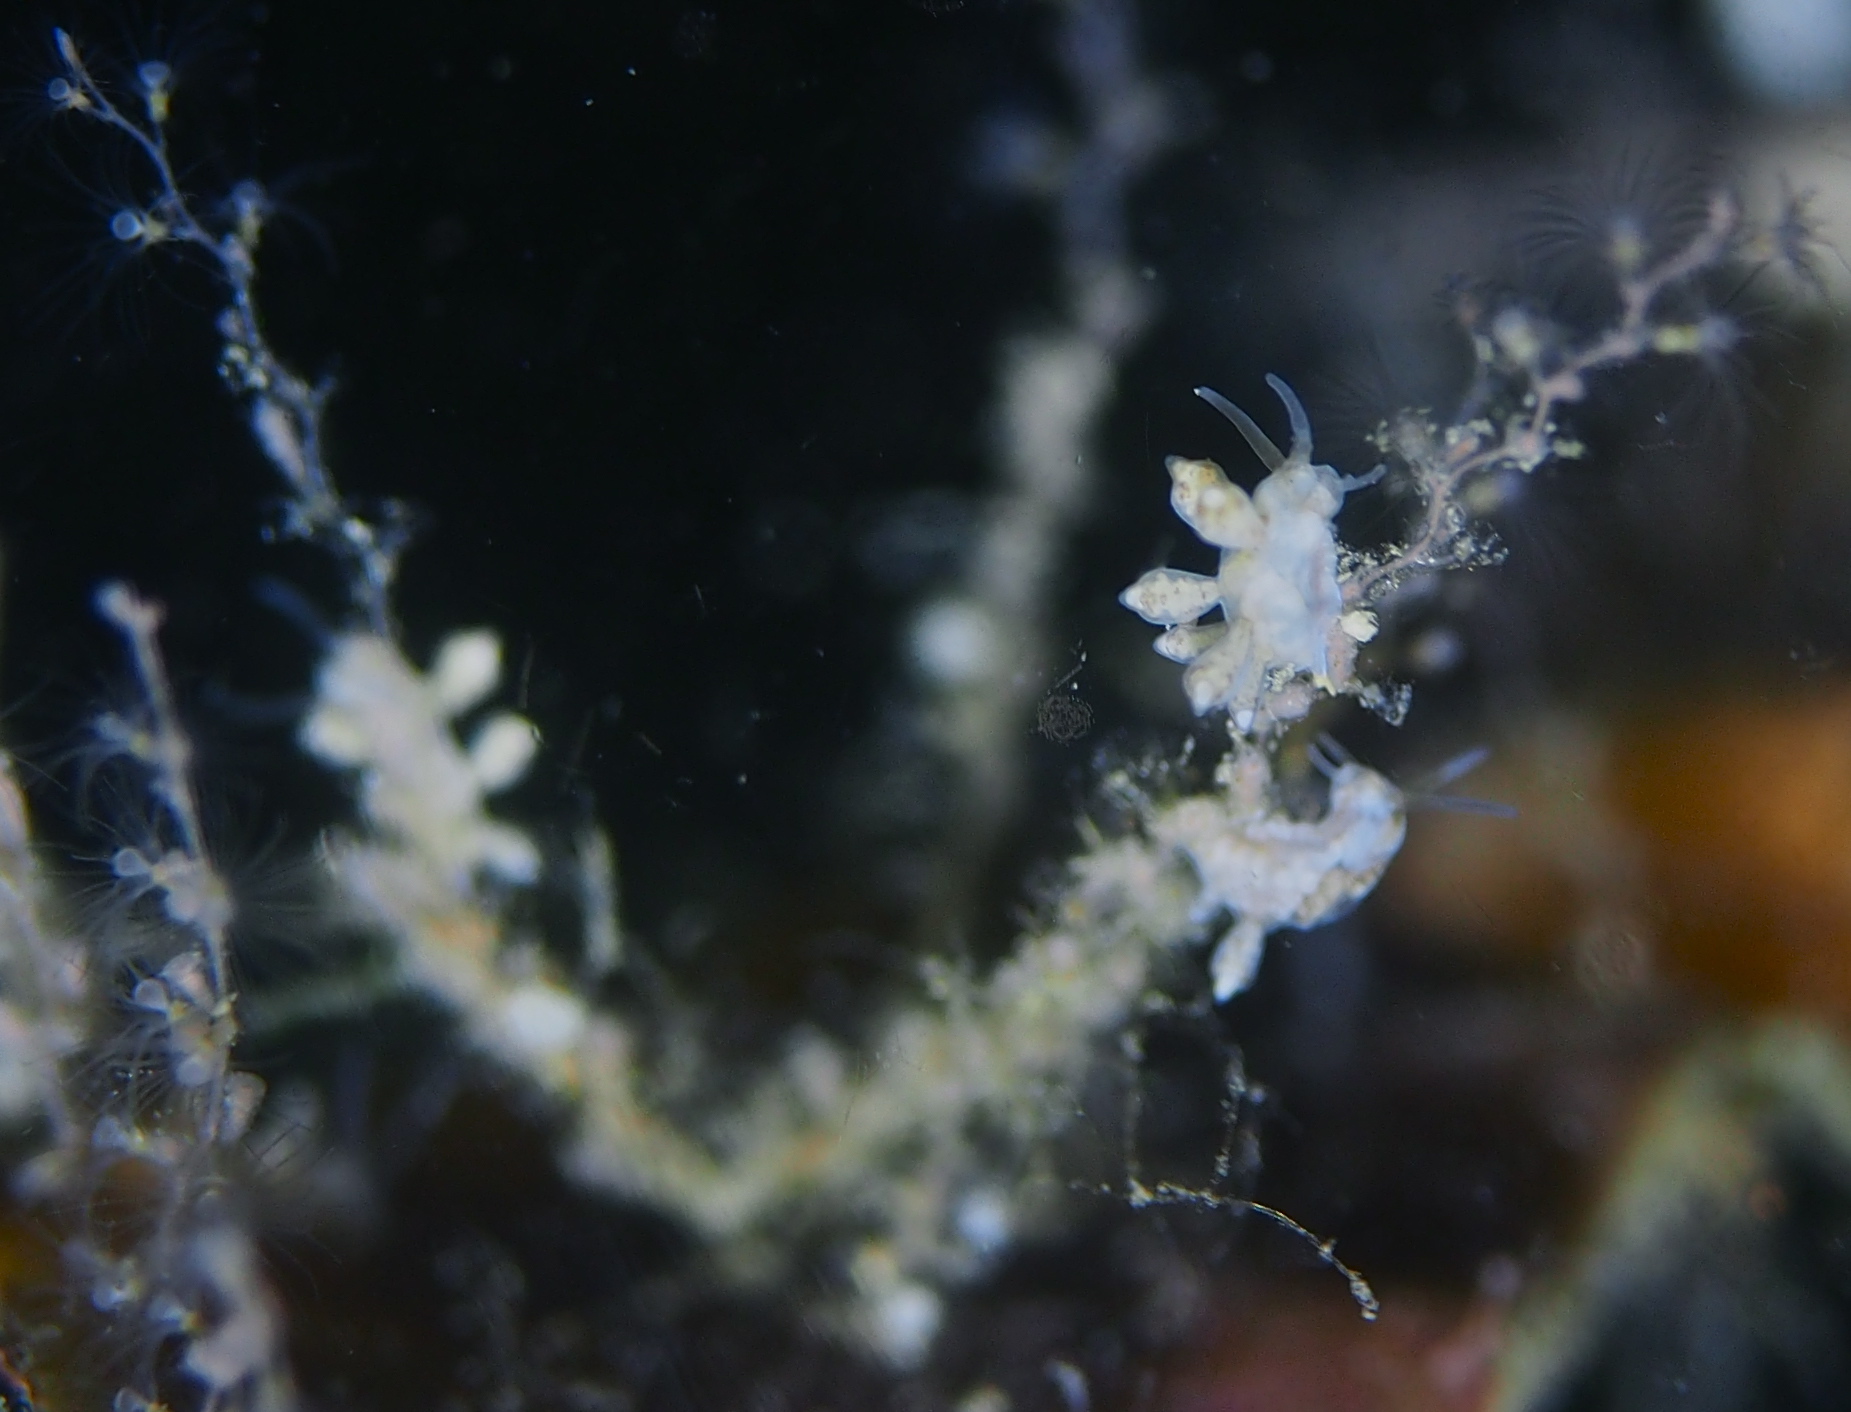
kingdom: Animalia
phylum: Mollusca
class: Gastropoda
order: Nudibranchia
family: Tergipedidae
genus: Tergipes
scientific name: Tergipes tergipes
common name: Johnston's balloon eolis
